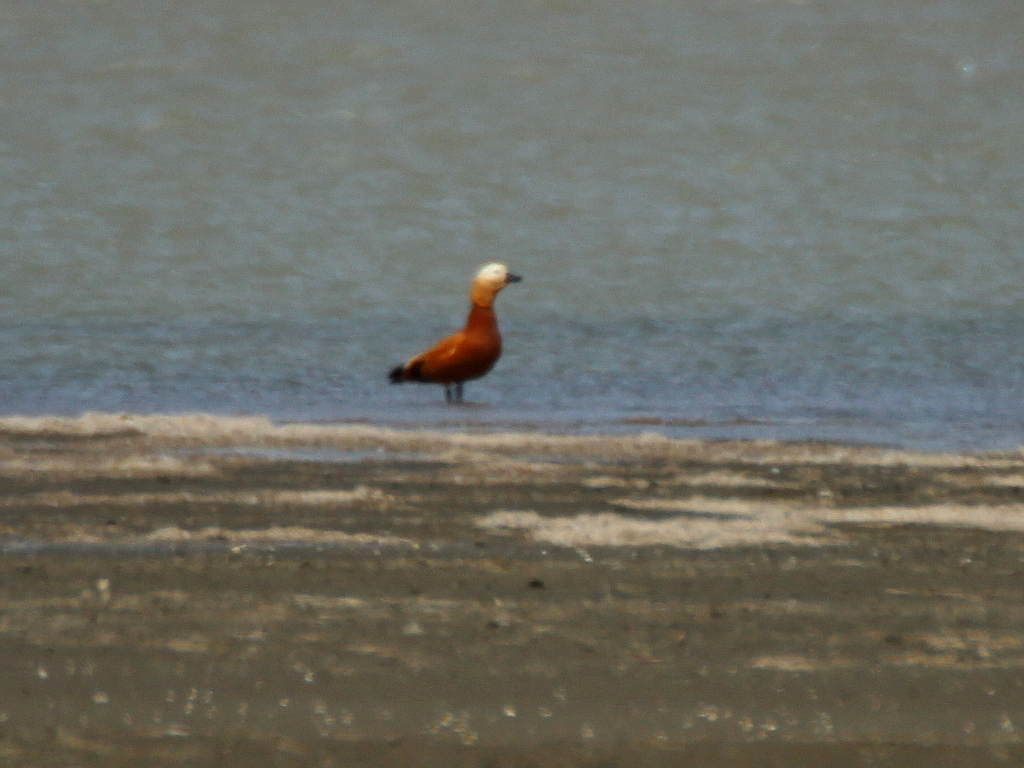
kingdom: Animalia
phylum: Chordata
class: Aves
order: Anseriformes
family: Anatidae
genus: Tadorna
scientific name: Tadorna ferruginea
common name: Ruddy shelduck
